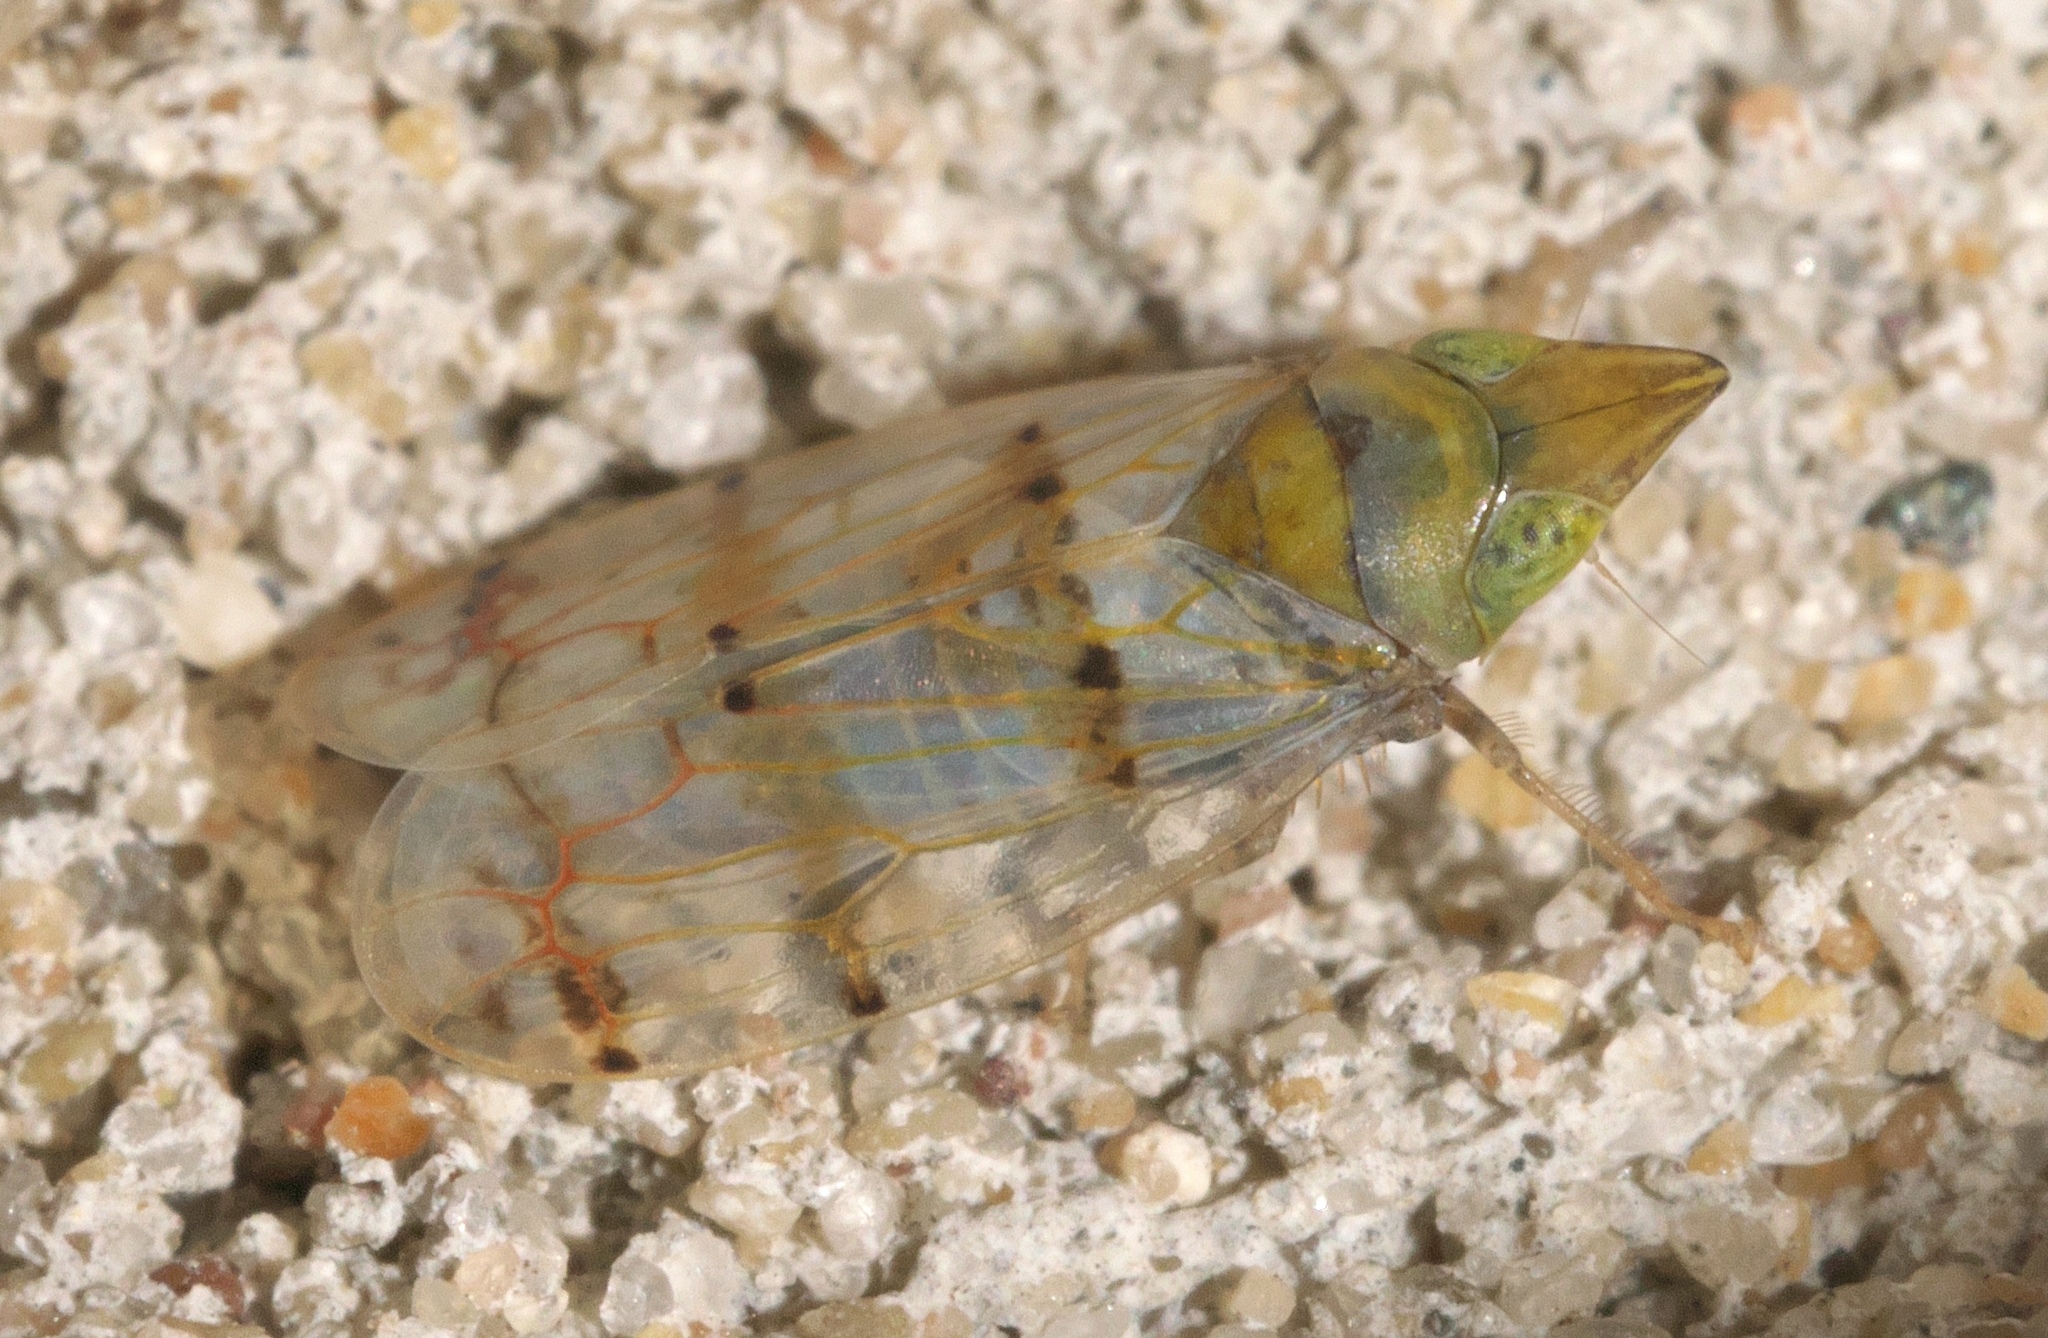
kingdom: Animalia
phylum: Arthropoda
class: Insecta
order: Hemiptera
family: Cicadellidae
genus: Japananus
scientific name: Japananus hyalinus
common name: The japanese maple leafhopper
